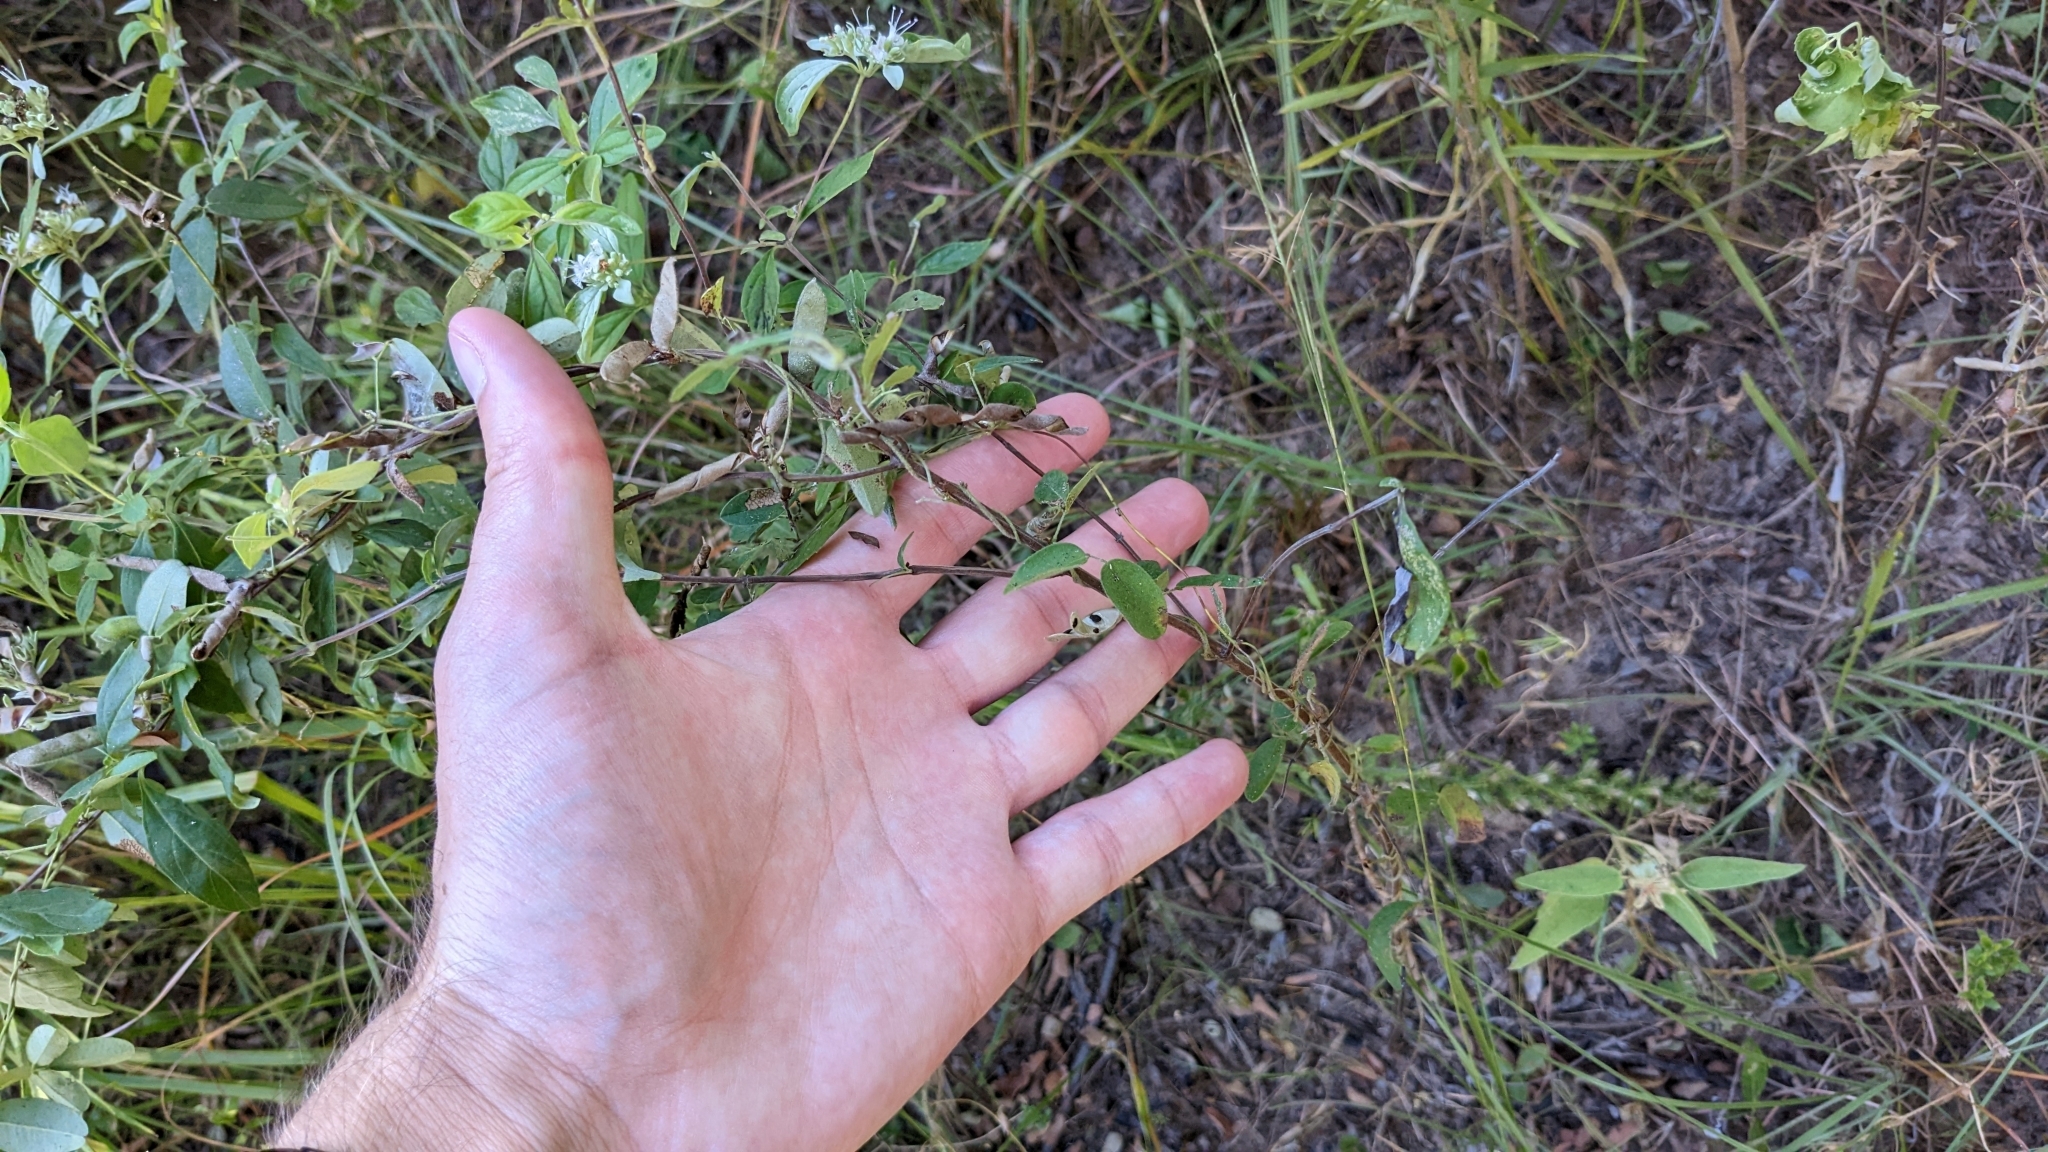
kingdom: Plantae
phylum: Tracheophyta
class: Magnoliopsida
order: Lamiales
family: Lamiaceae
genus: Pycnanthemum
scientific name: Pycnanthemum albescens
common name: White-leaf mountain-mint
